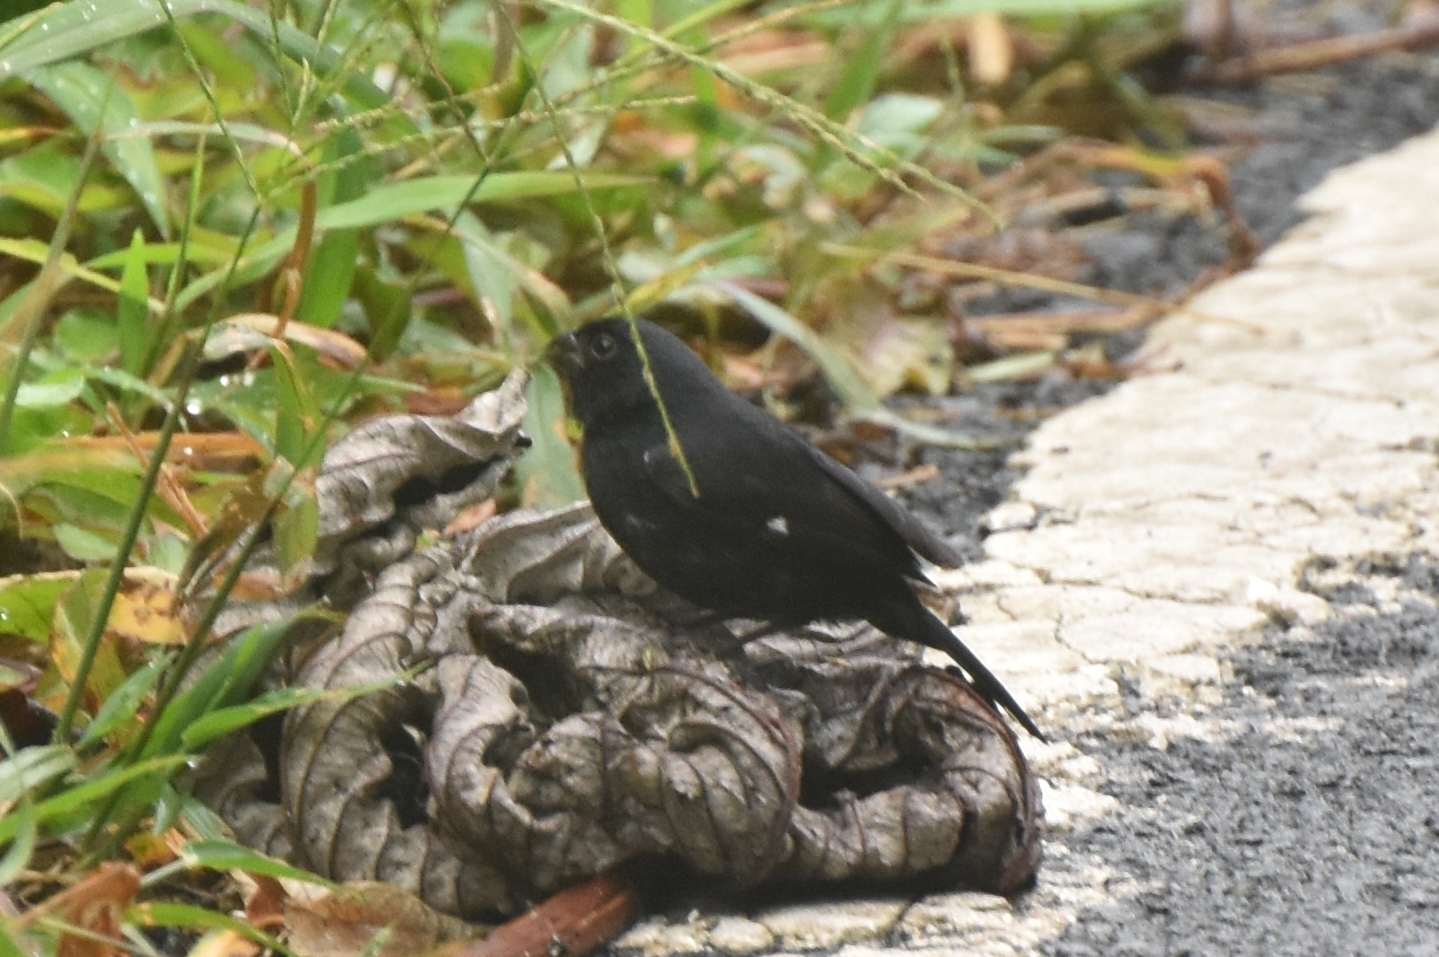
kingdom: Animalia
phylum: Chordata
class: Aves
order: Passeriformes
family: Thraupidae
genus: Sporophila
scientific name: Sporophila corvina
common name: Variable seedeater
